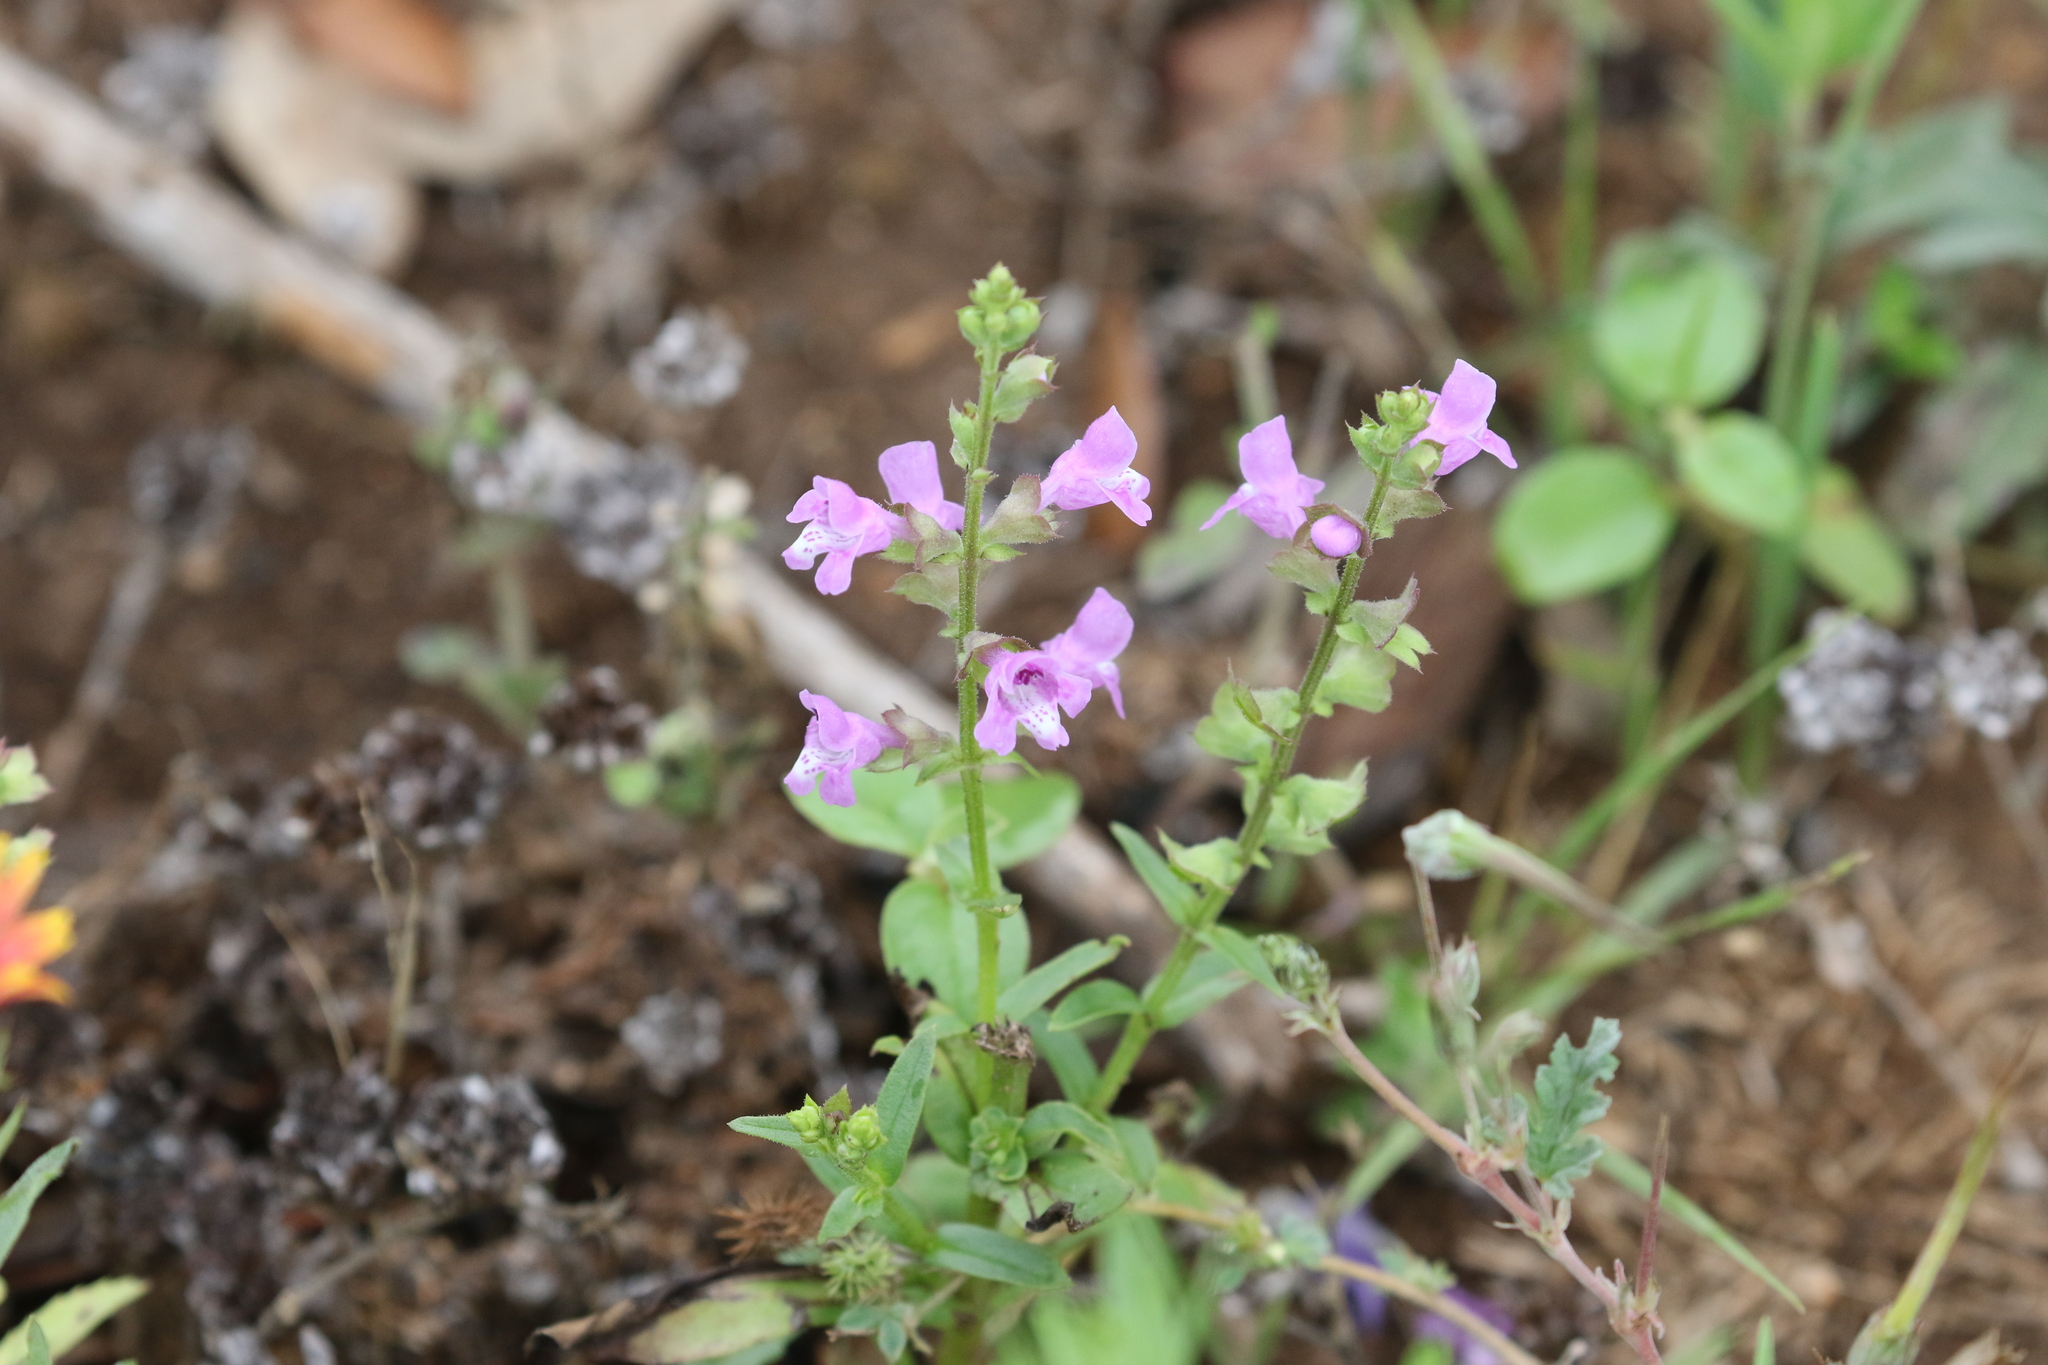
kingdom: Plantae
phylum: Tracheophyta
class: Magnoliopsida
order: Lamiales
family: Lamiaceae
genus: Warnockia
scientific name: Warnockia scutellarioides
